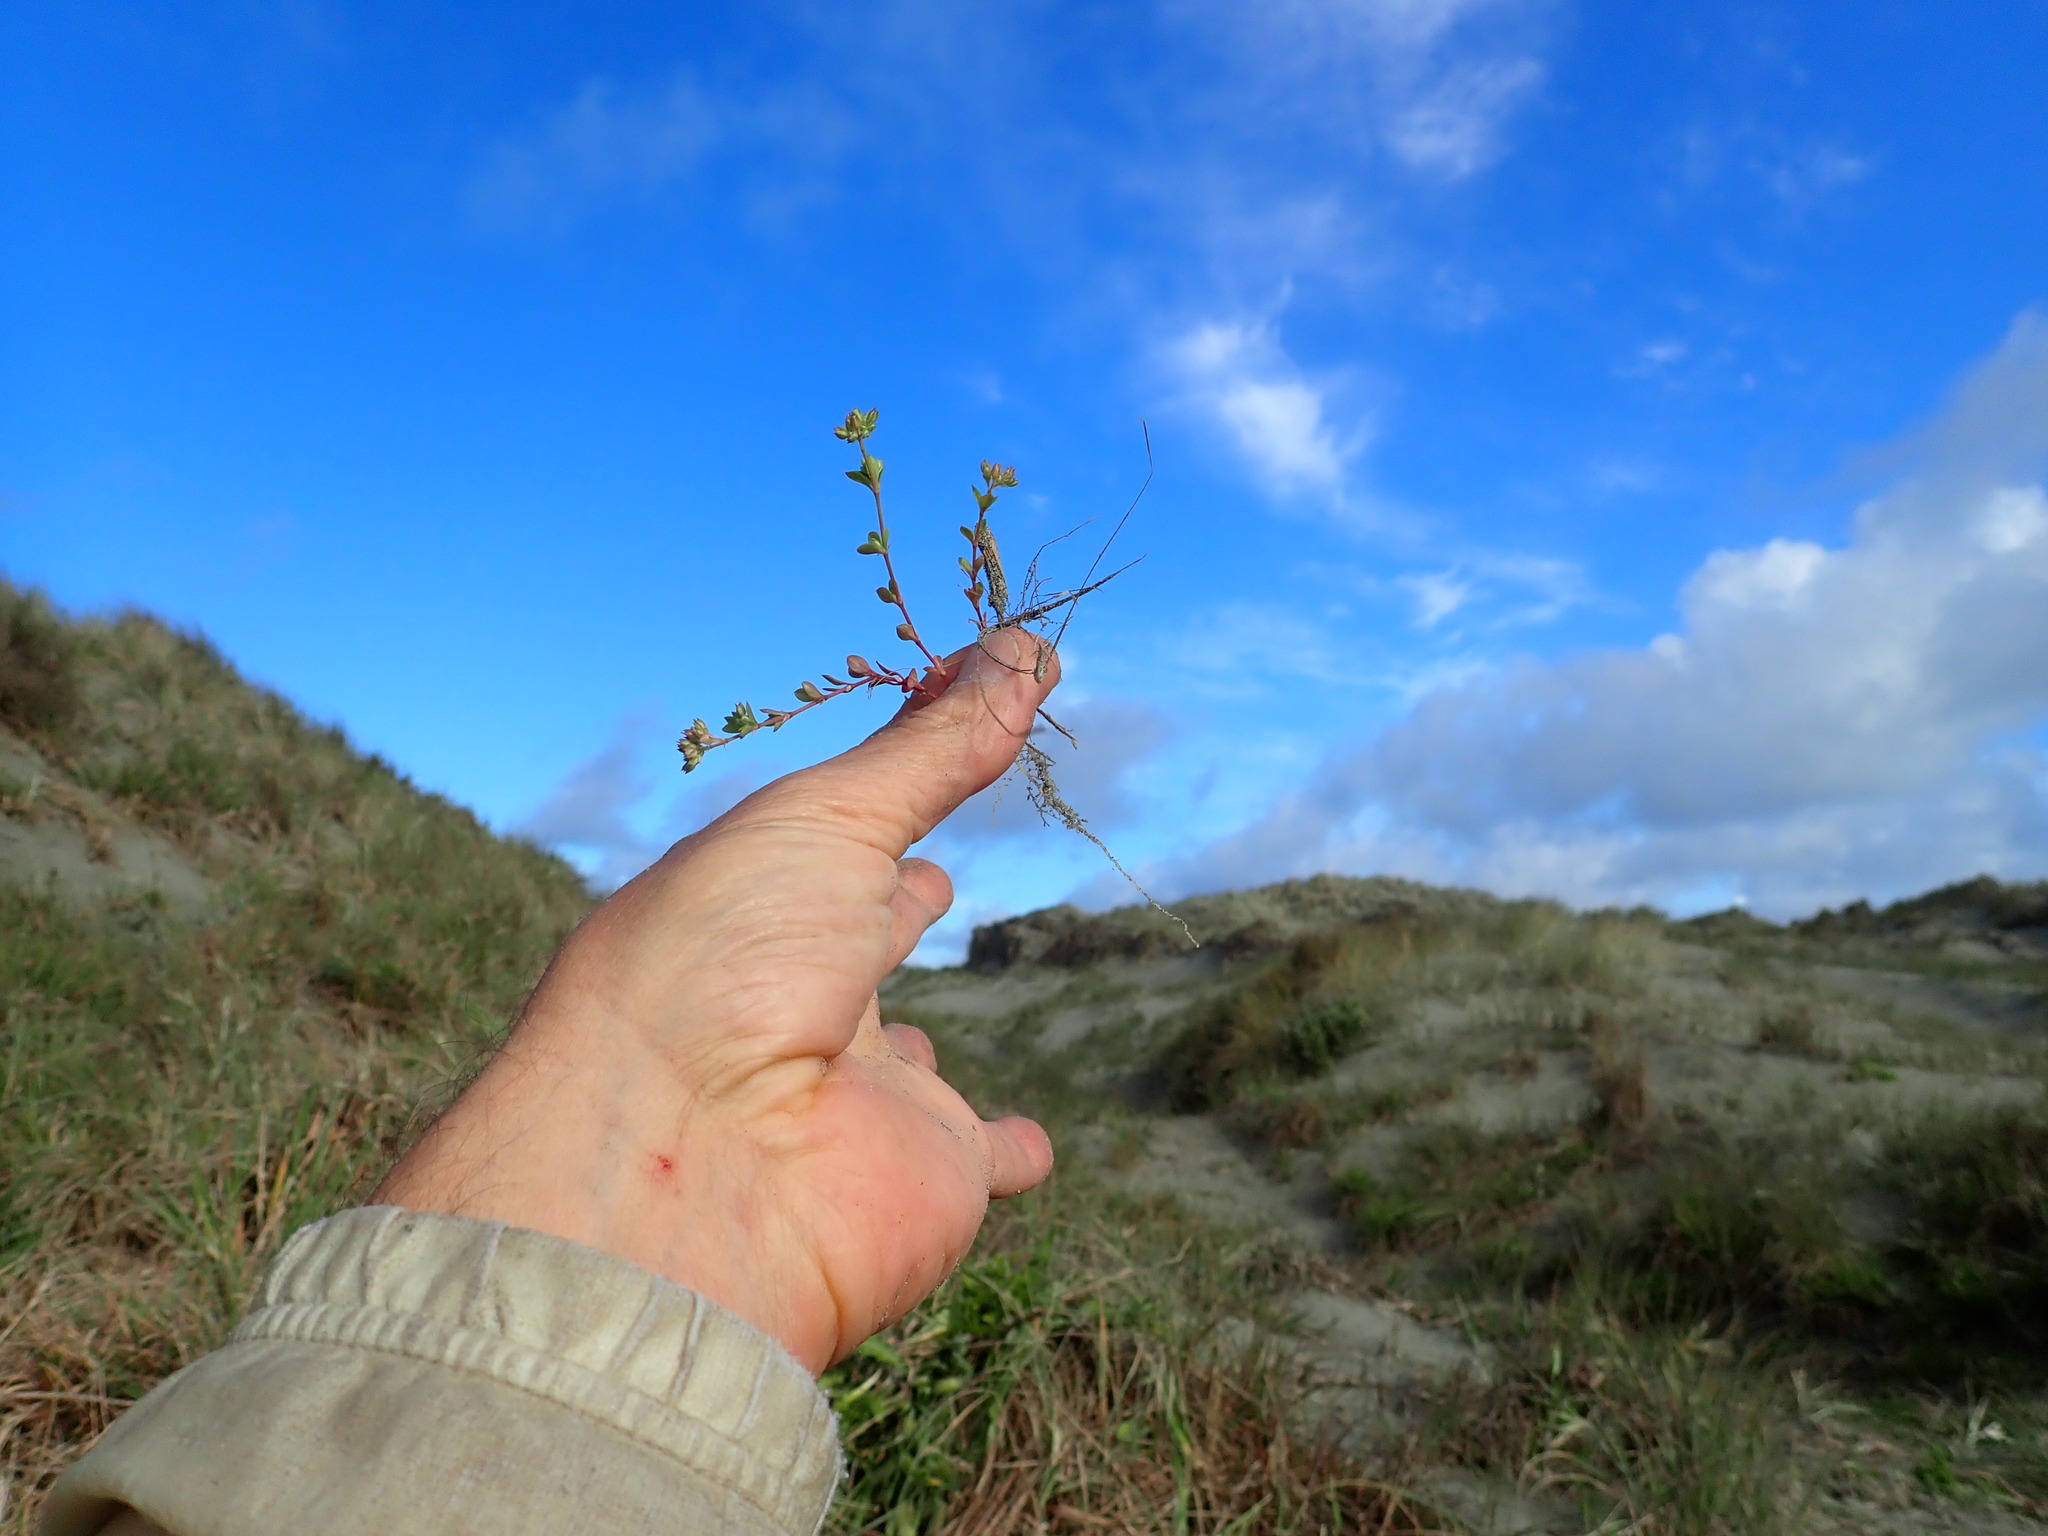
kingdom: Plantae
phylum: Tracheophyta
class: Magnoliopsida
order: Caryophyllales
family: Caryophyllaceae
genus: Polycarpon
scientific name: Polycarpon tetraphyllum
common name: Four-leaved all-seed
